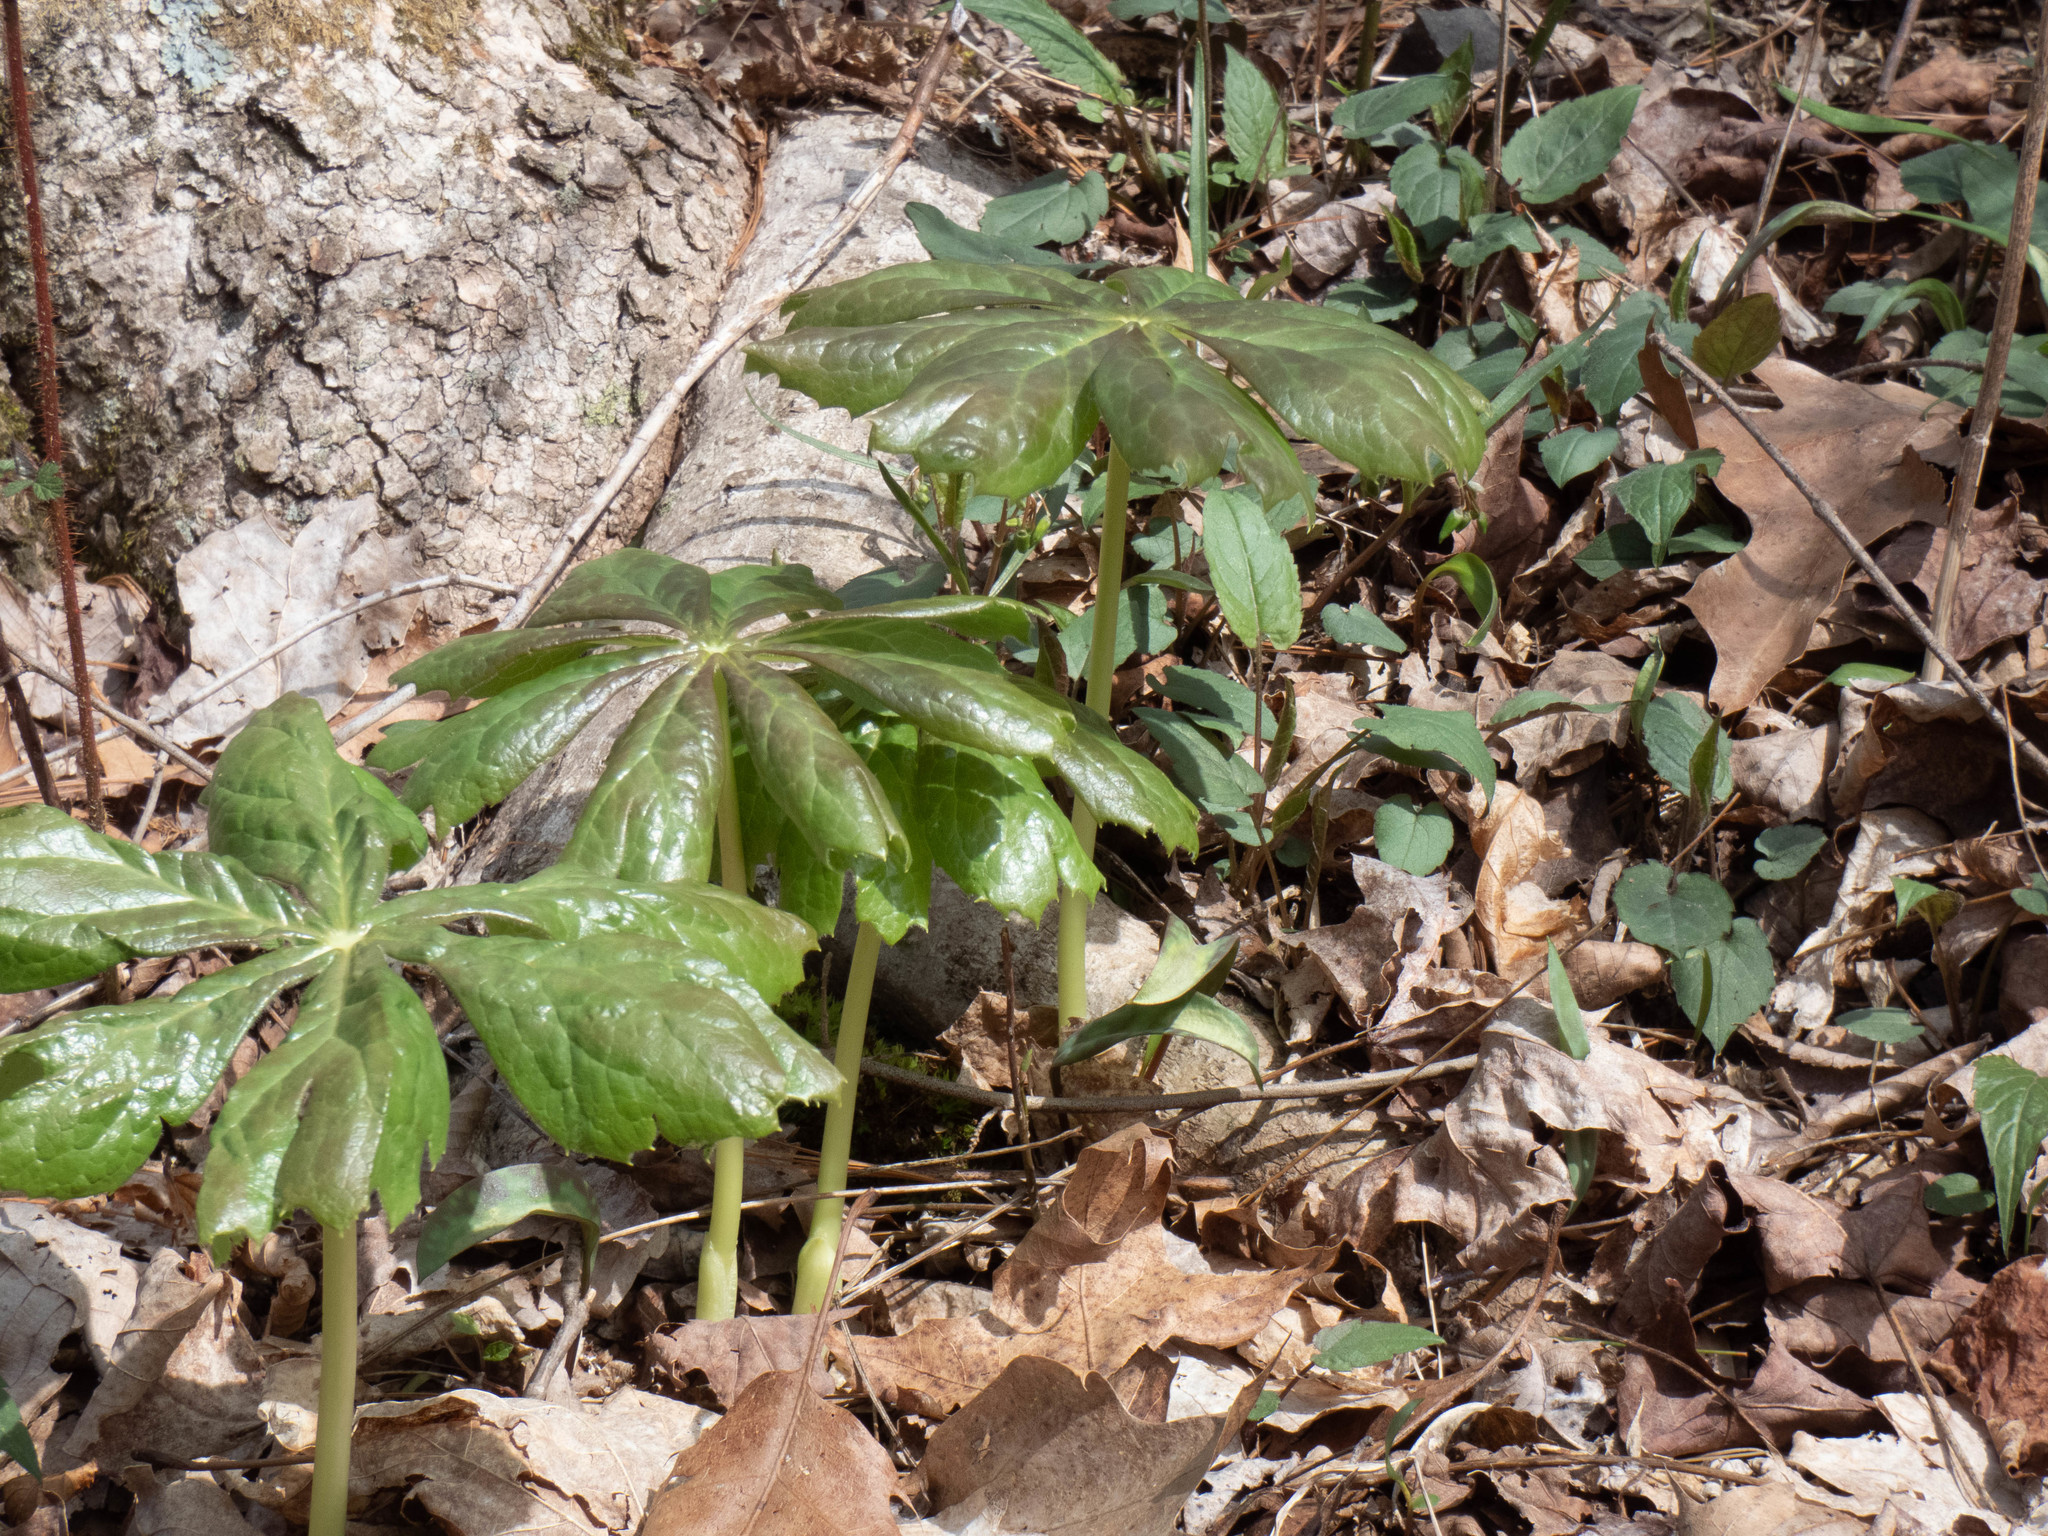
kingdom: Plantae
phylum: Tracheophyta
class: Magnoliopsida
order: Ranunculales
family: Berberidaceae
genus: Podophyllum
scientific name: Podophyllum peltatum
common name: Wild mandrake
